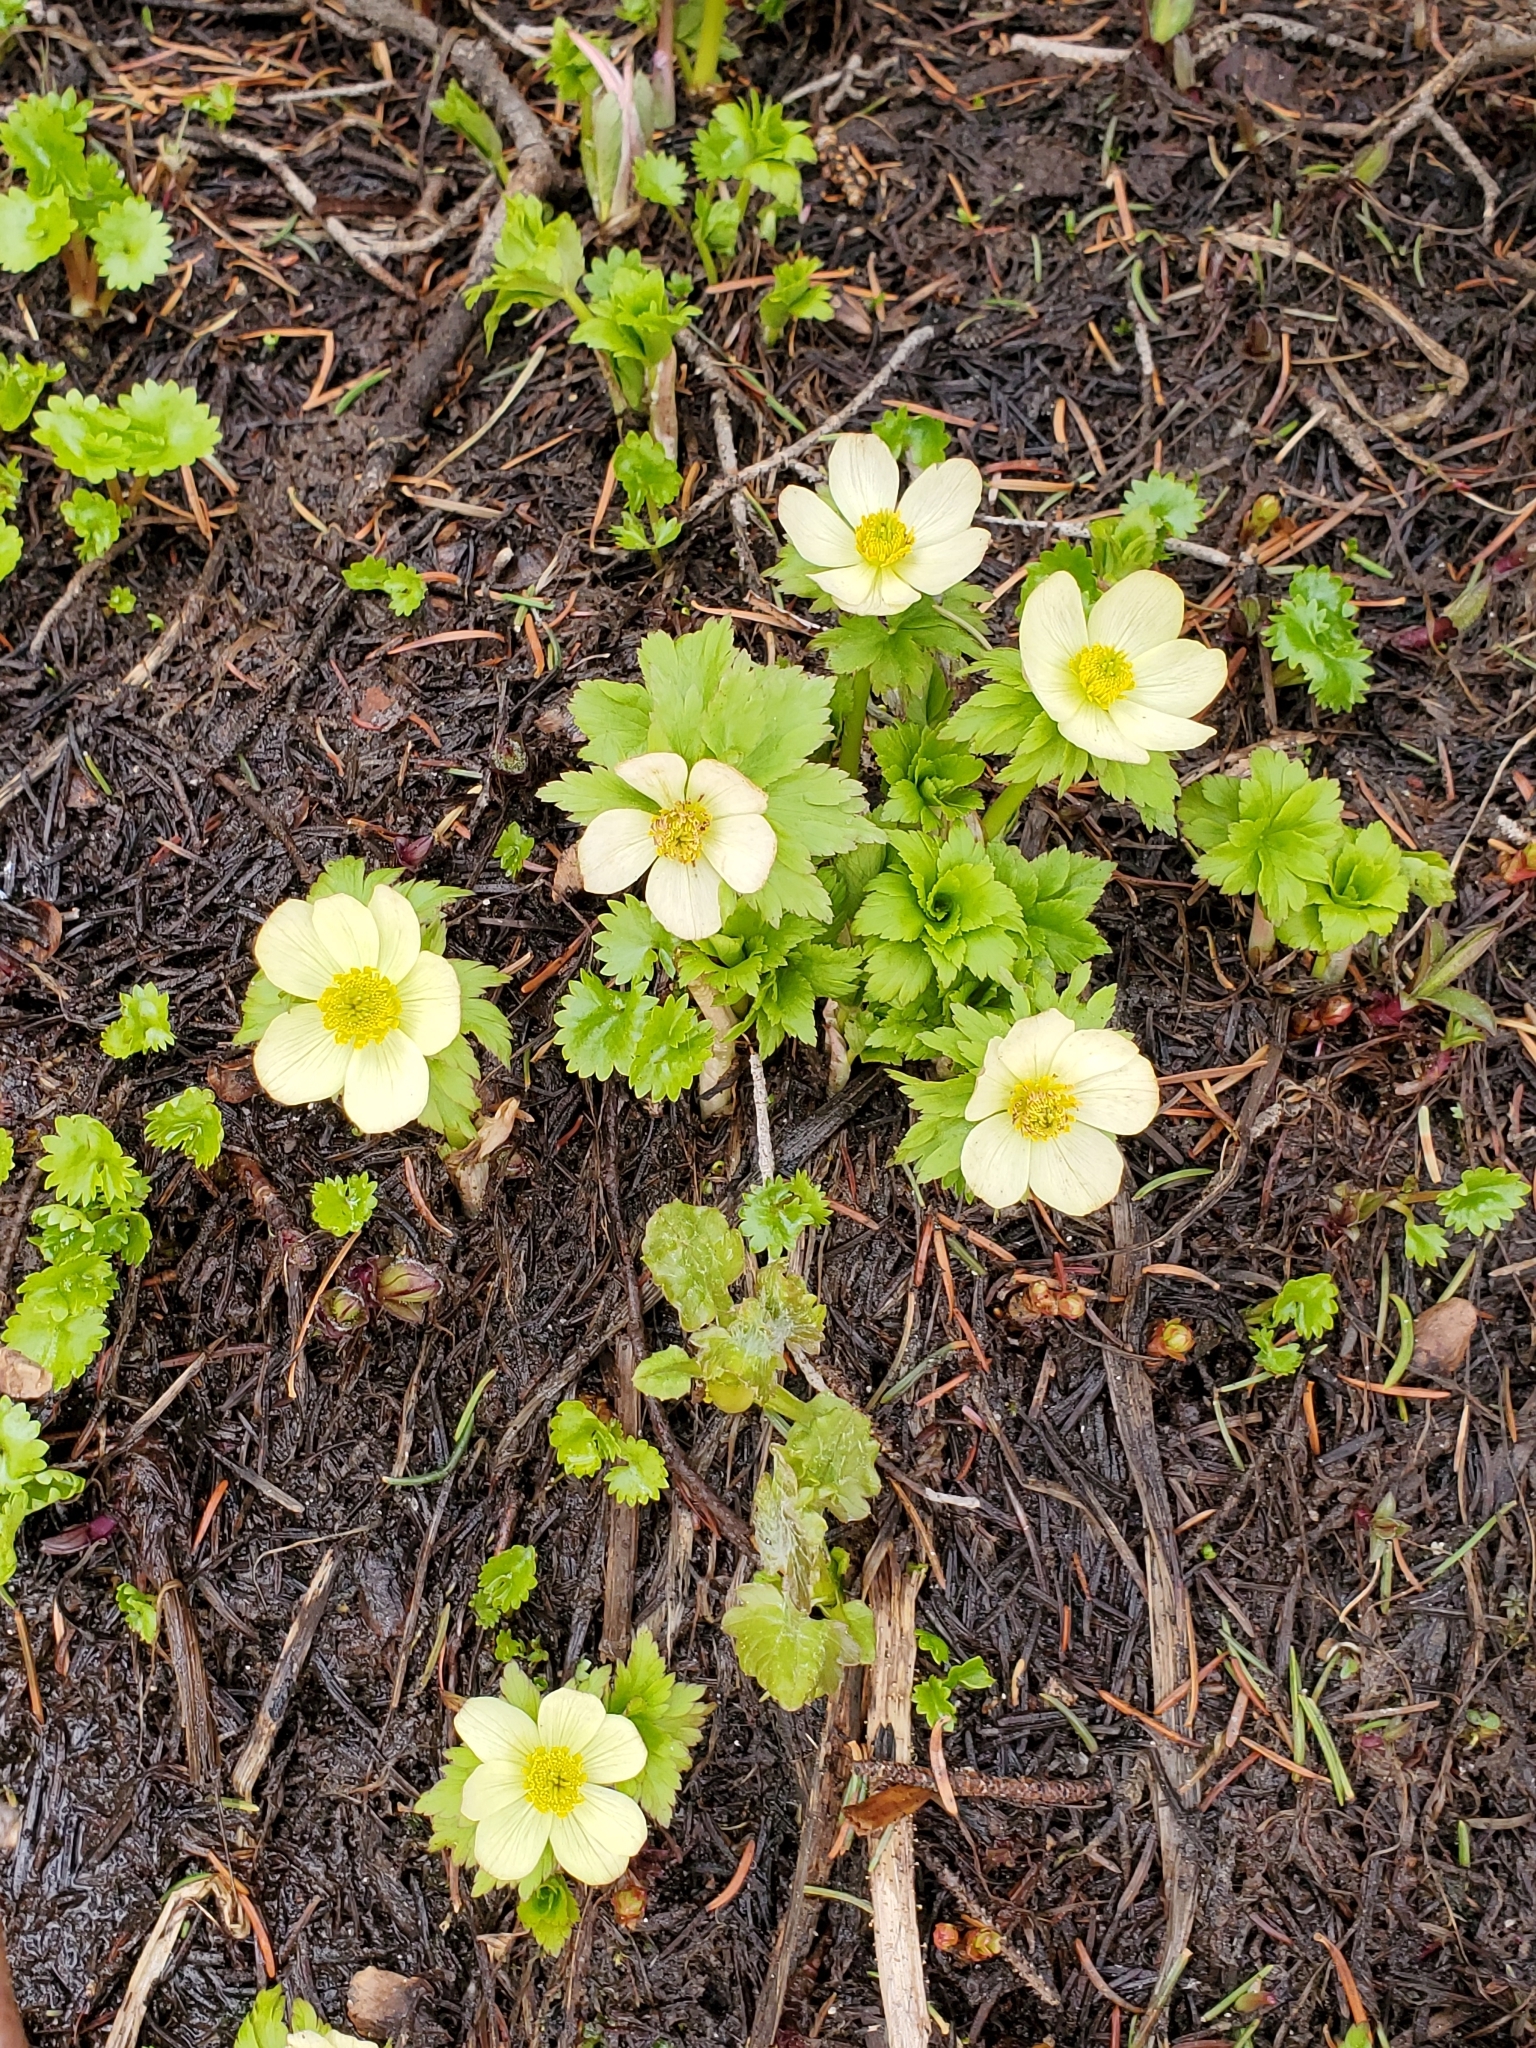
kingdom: Plantae
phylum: Tracheophyta
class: Magnoliopsida
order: Ranunculales
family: Ranunculaceae
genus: Trollius
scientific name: Trollius laxus
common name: American globeflower
